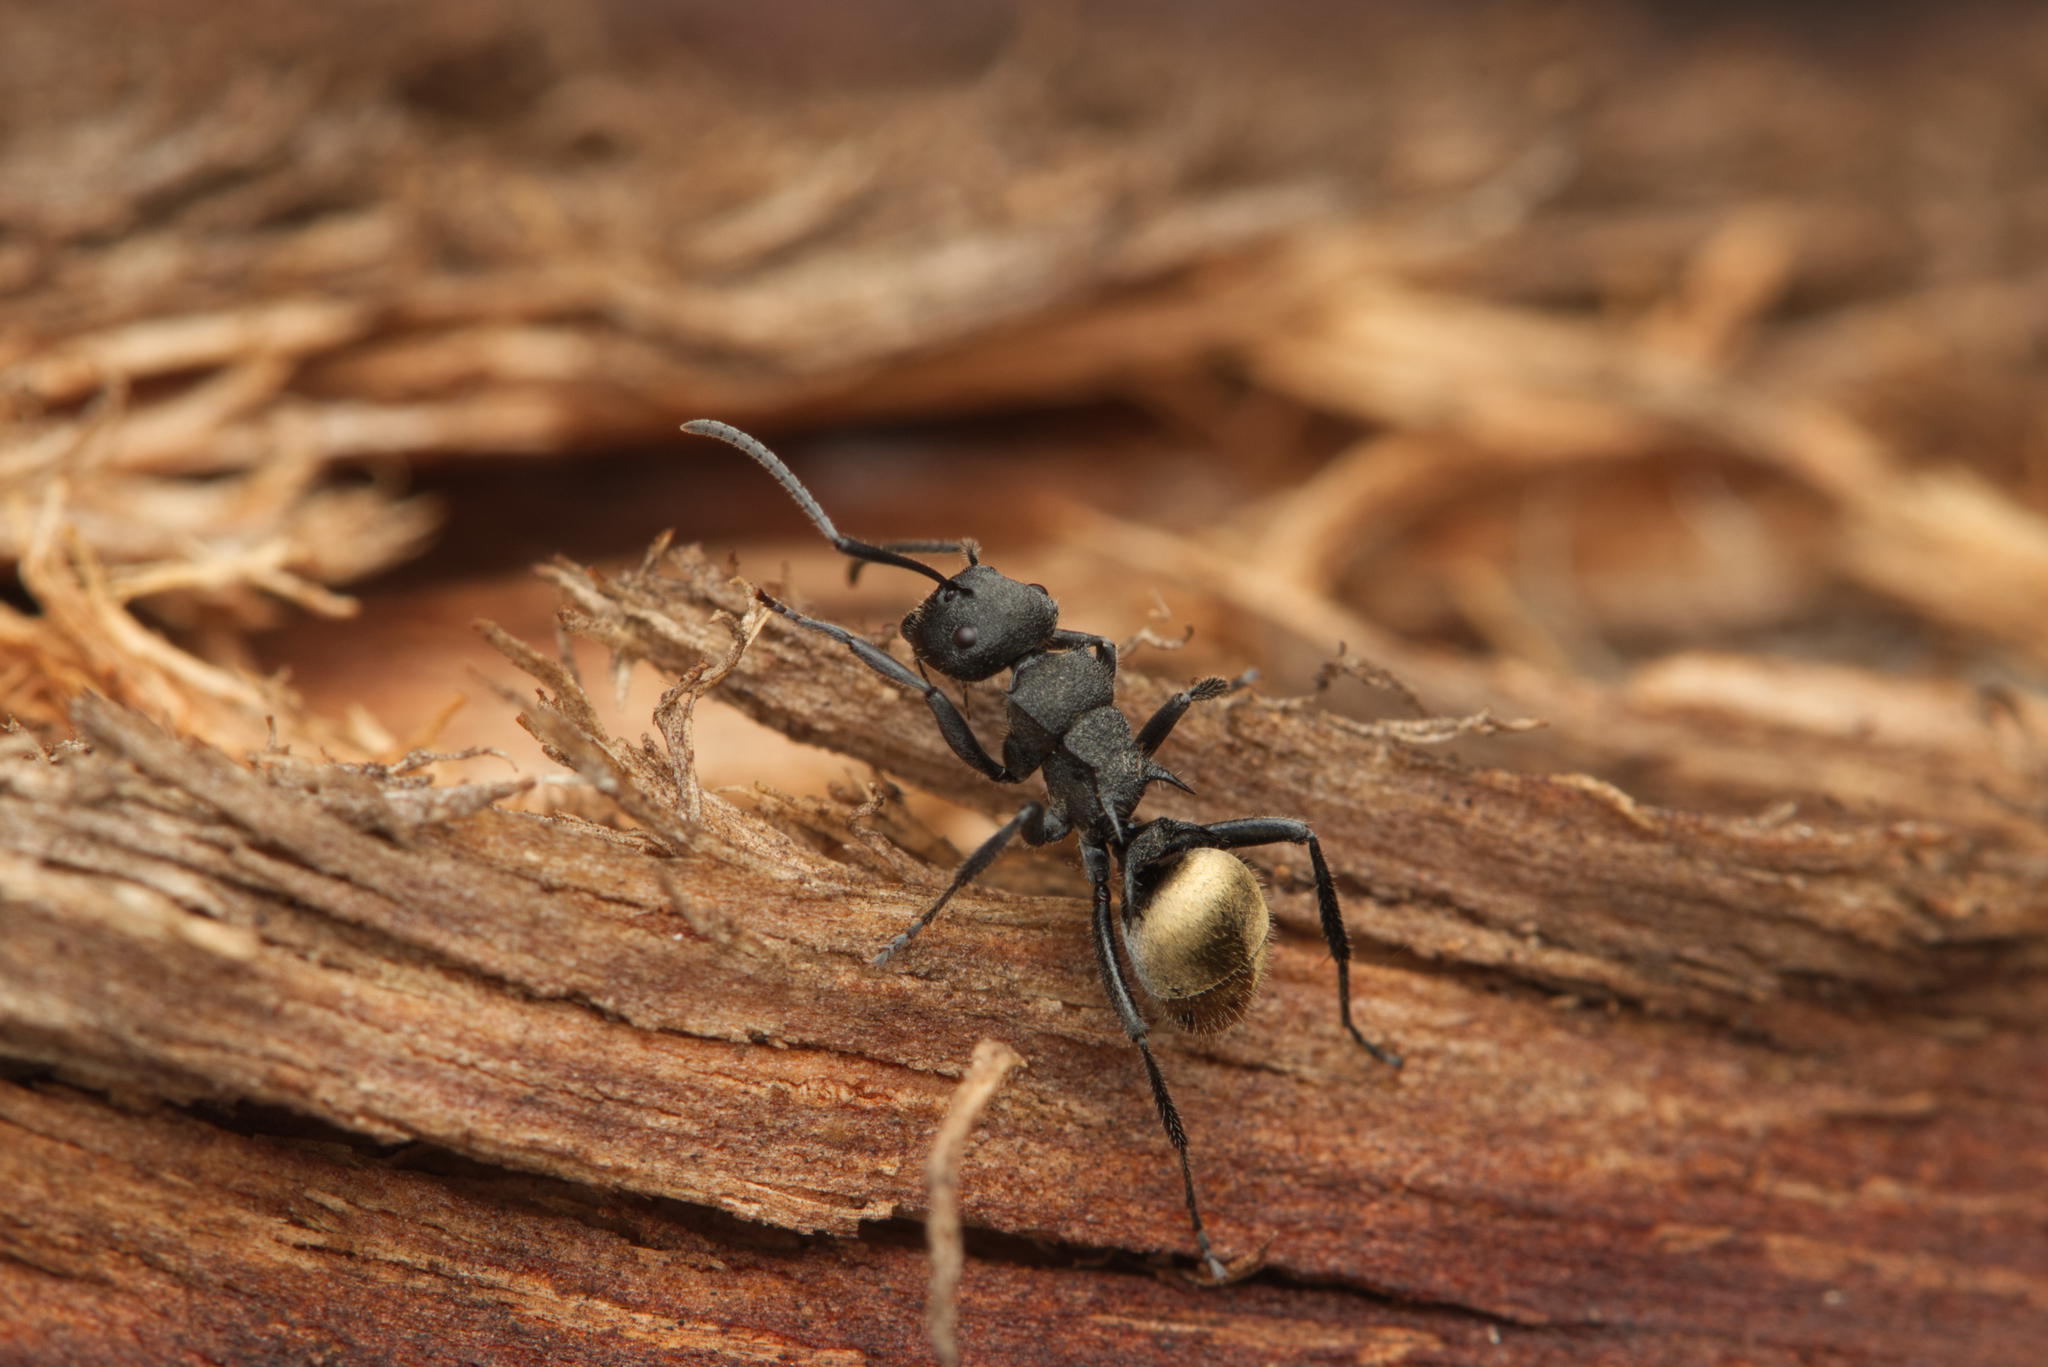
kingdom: Animalia
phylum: Arthropoda
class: Insecta
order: Hymenoptera
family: Formicidae
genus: Polyrhachis
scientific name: Polyrhachis erato
